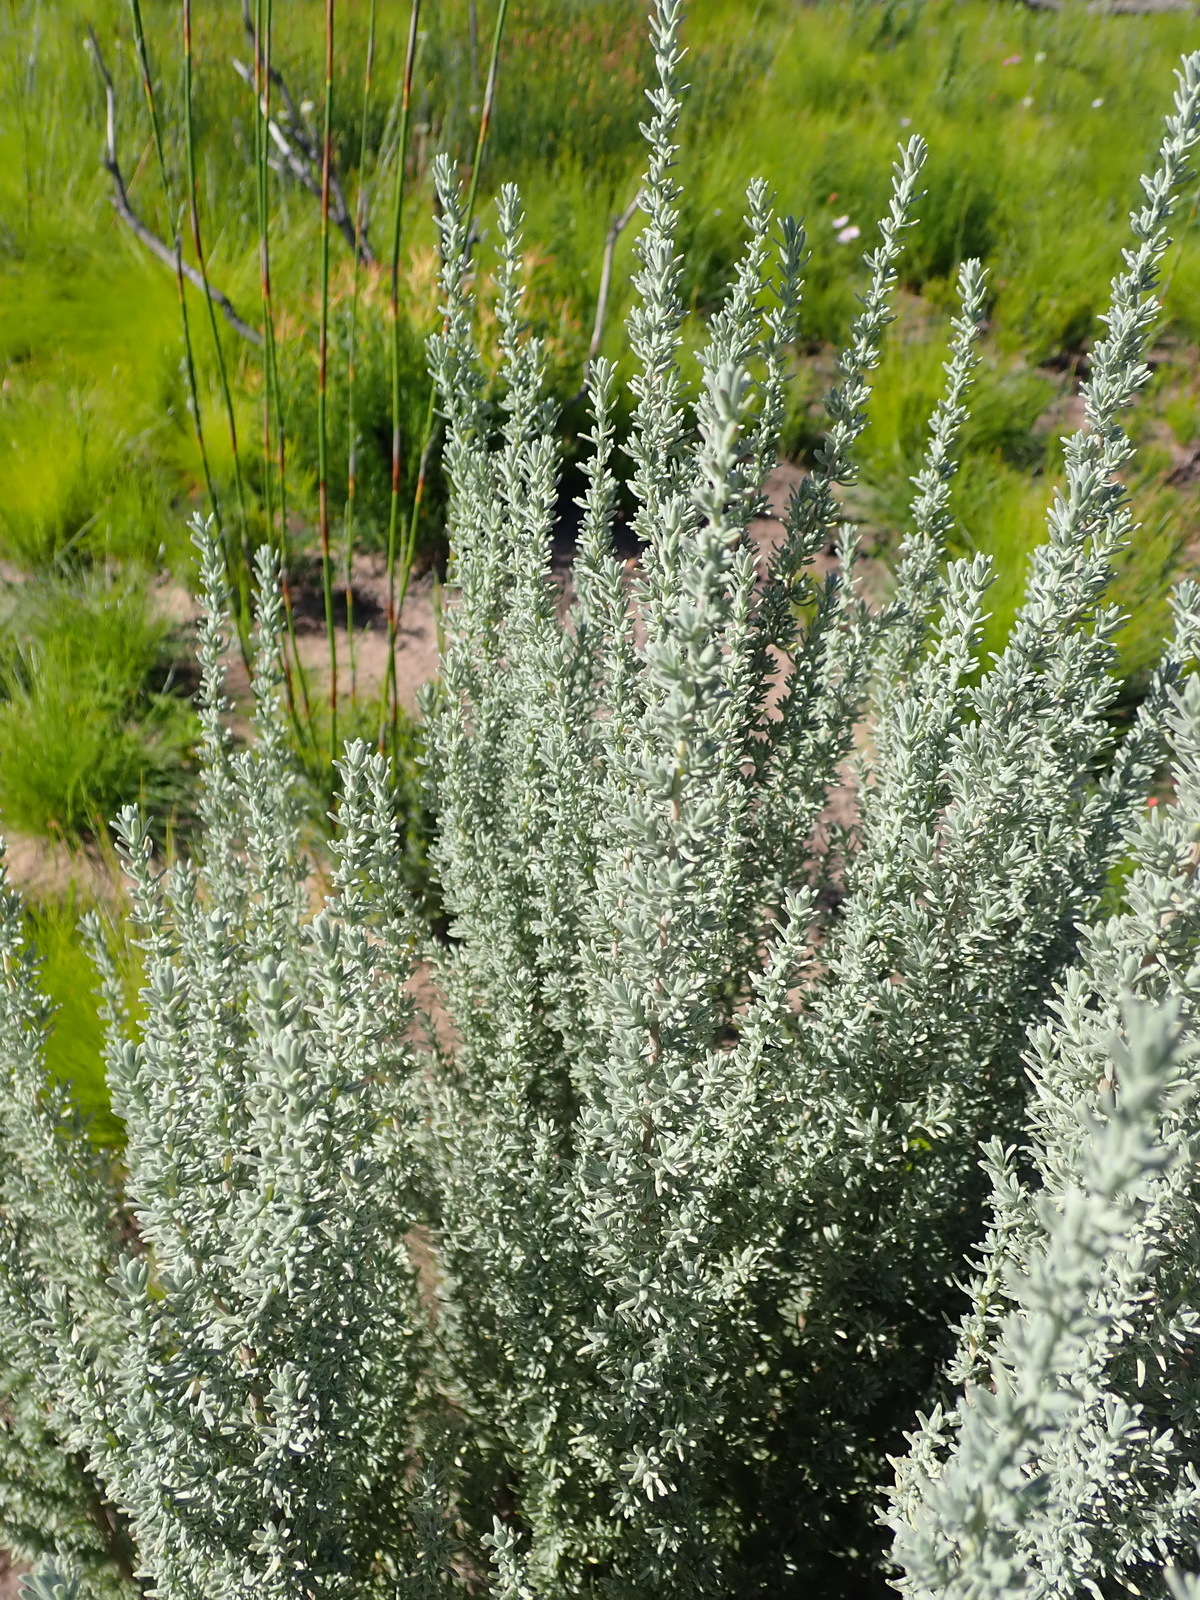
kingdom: Plantae
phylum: Tracheophyta
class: Magnoliopsida
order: Asterales
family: Asteraceae
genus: Eriocephalus
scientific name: Eriocephalus racemosus
